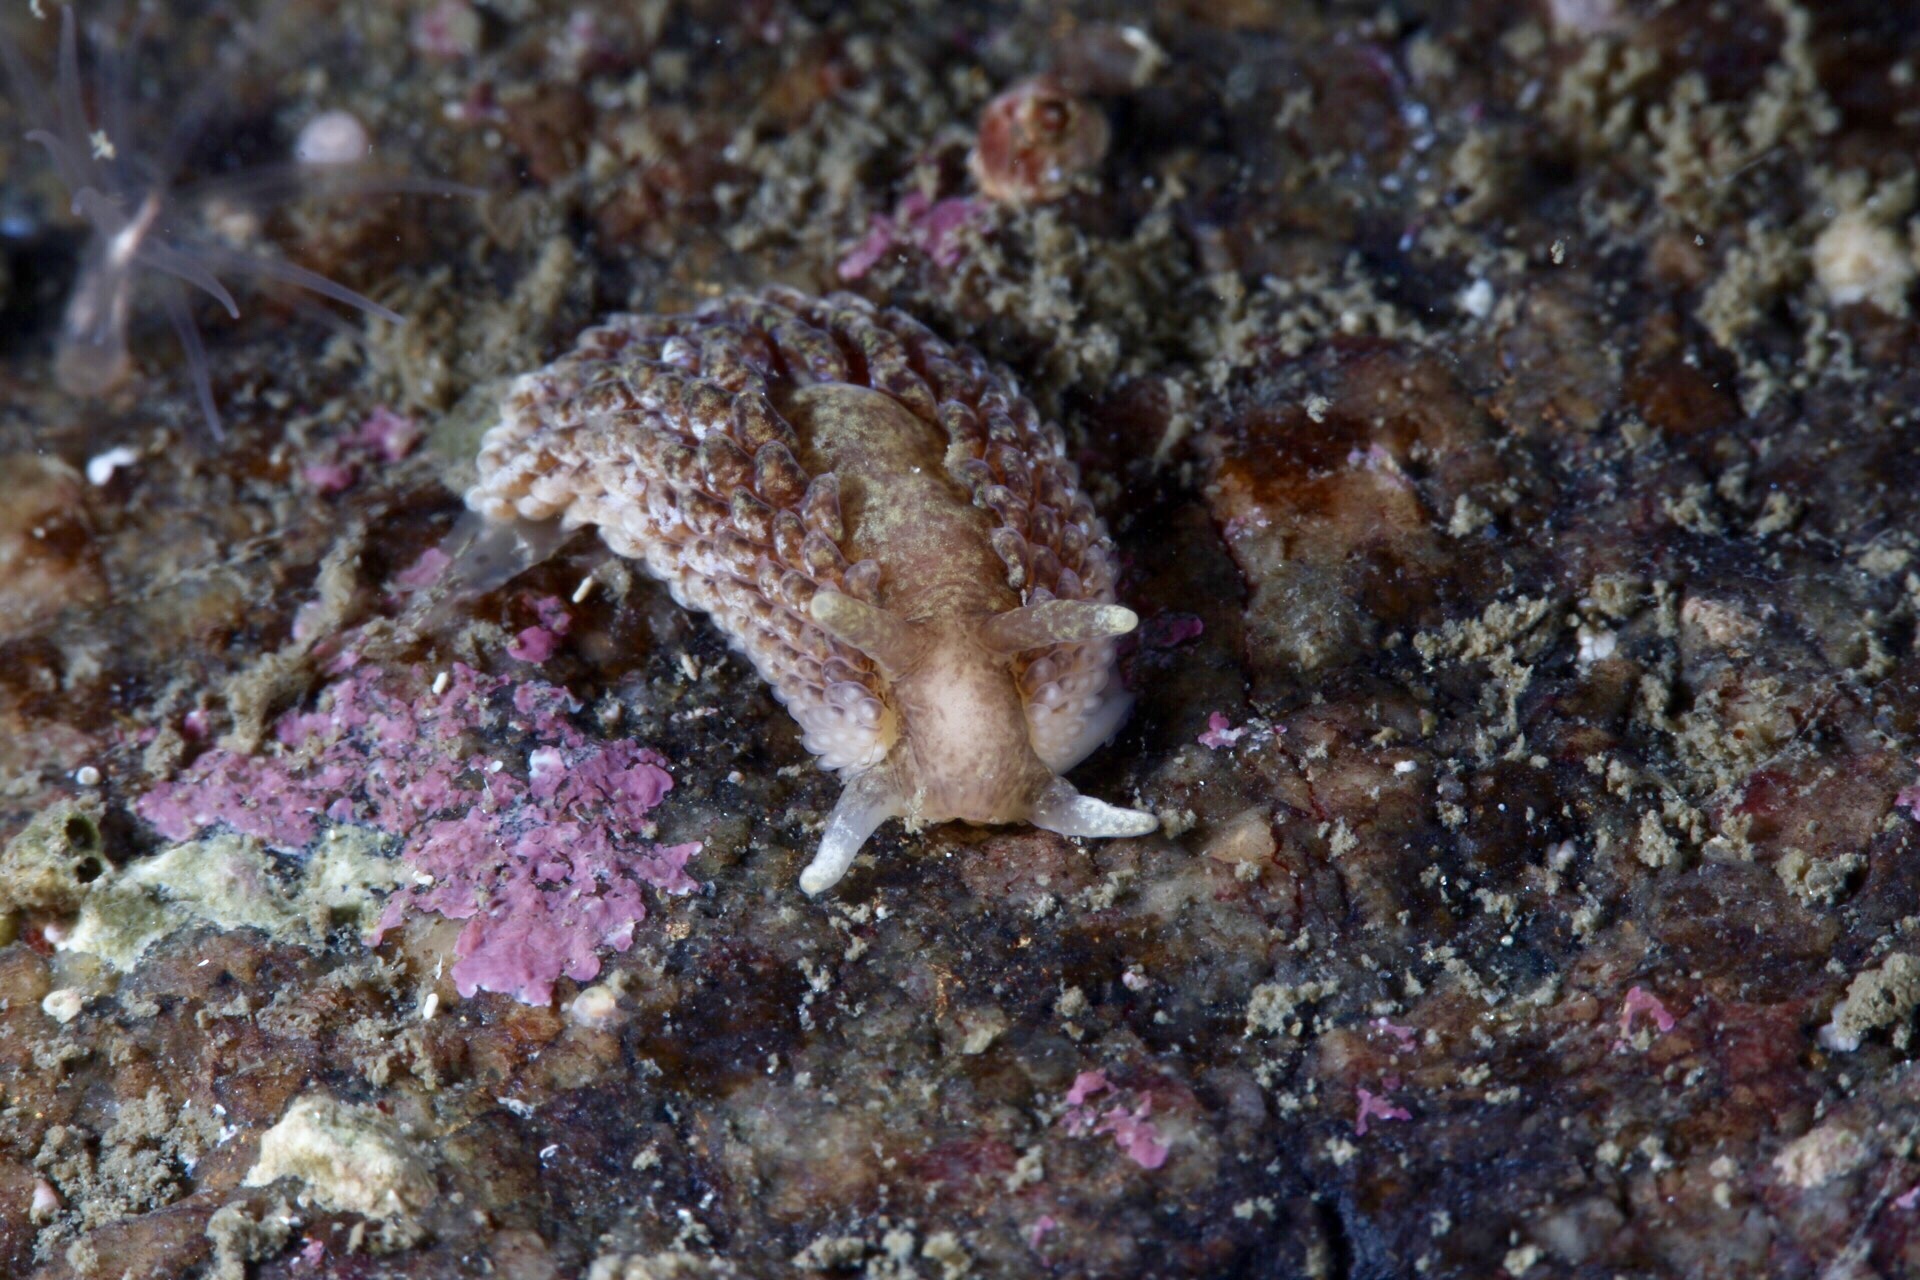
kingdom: Animalia
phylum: Mollusca
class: Gastropoda
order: Nudibranchia
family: Aeolidiidae
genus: Aeolidia
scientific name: Aeolidia papillosa
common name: Common grey sea slug
